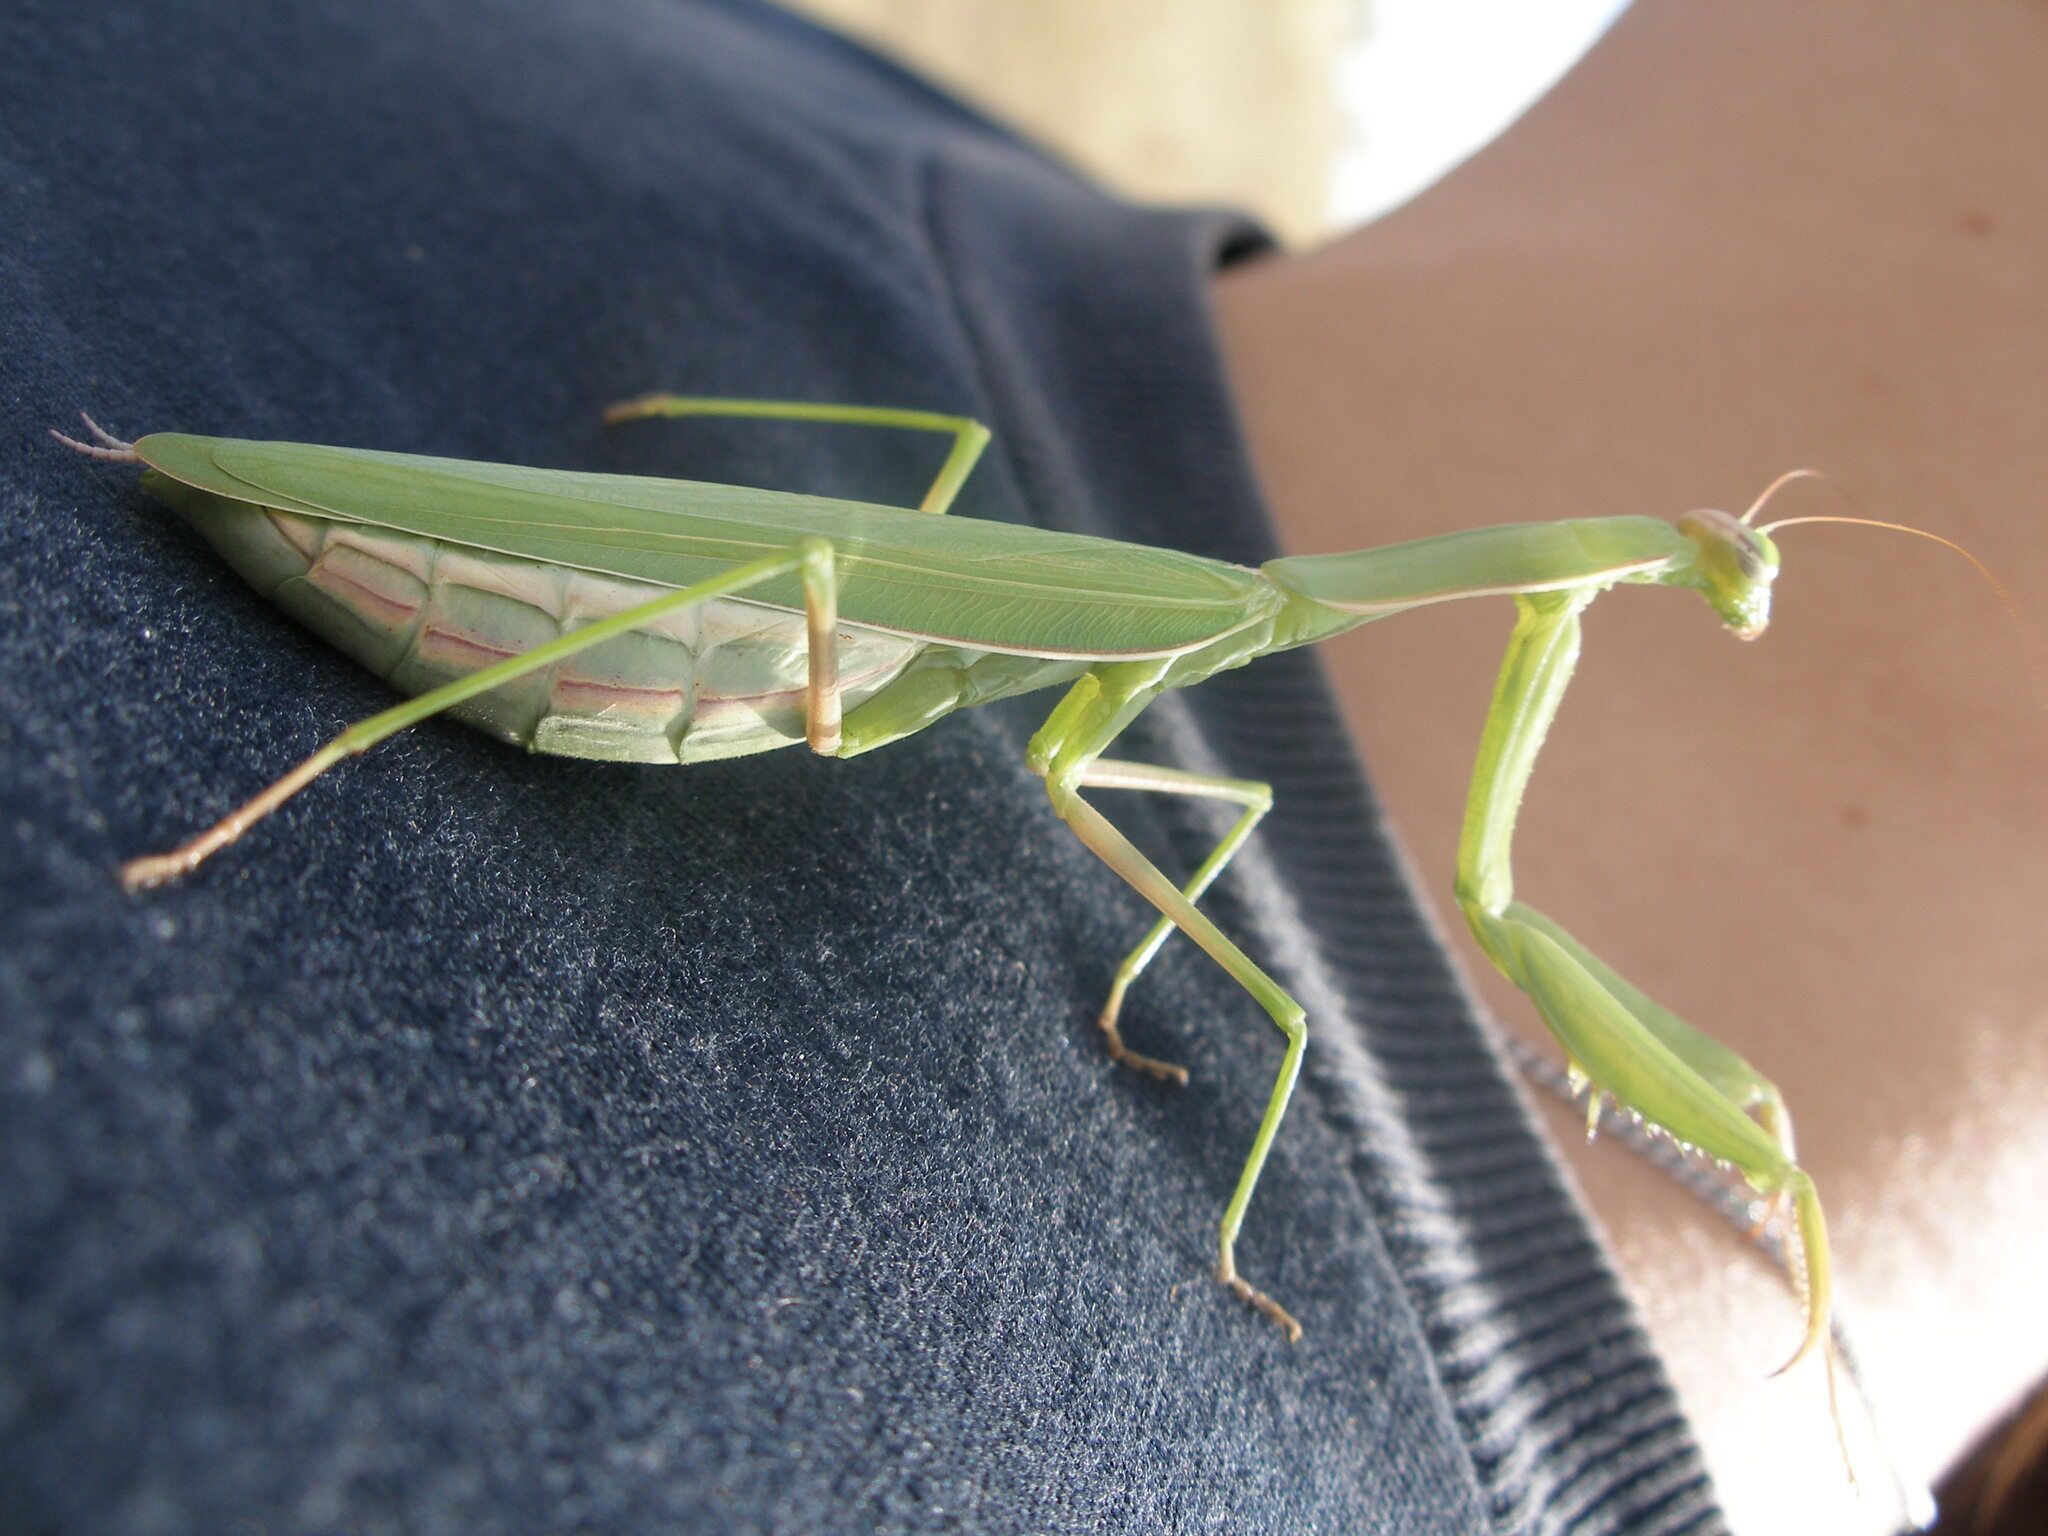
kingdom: Animalia
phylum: Arthropoda
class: Insecta
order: Mantodea
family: Mantidae
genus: Mantis
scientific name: Mantis religiosa
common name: Praying mantis
